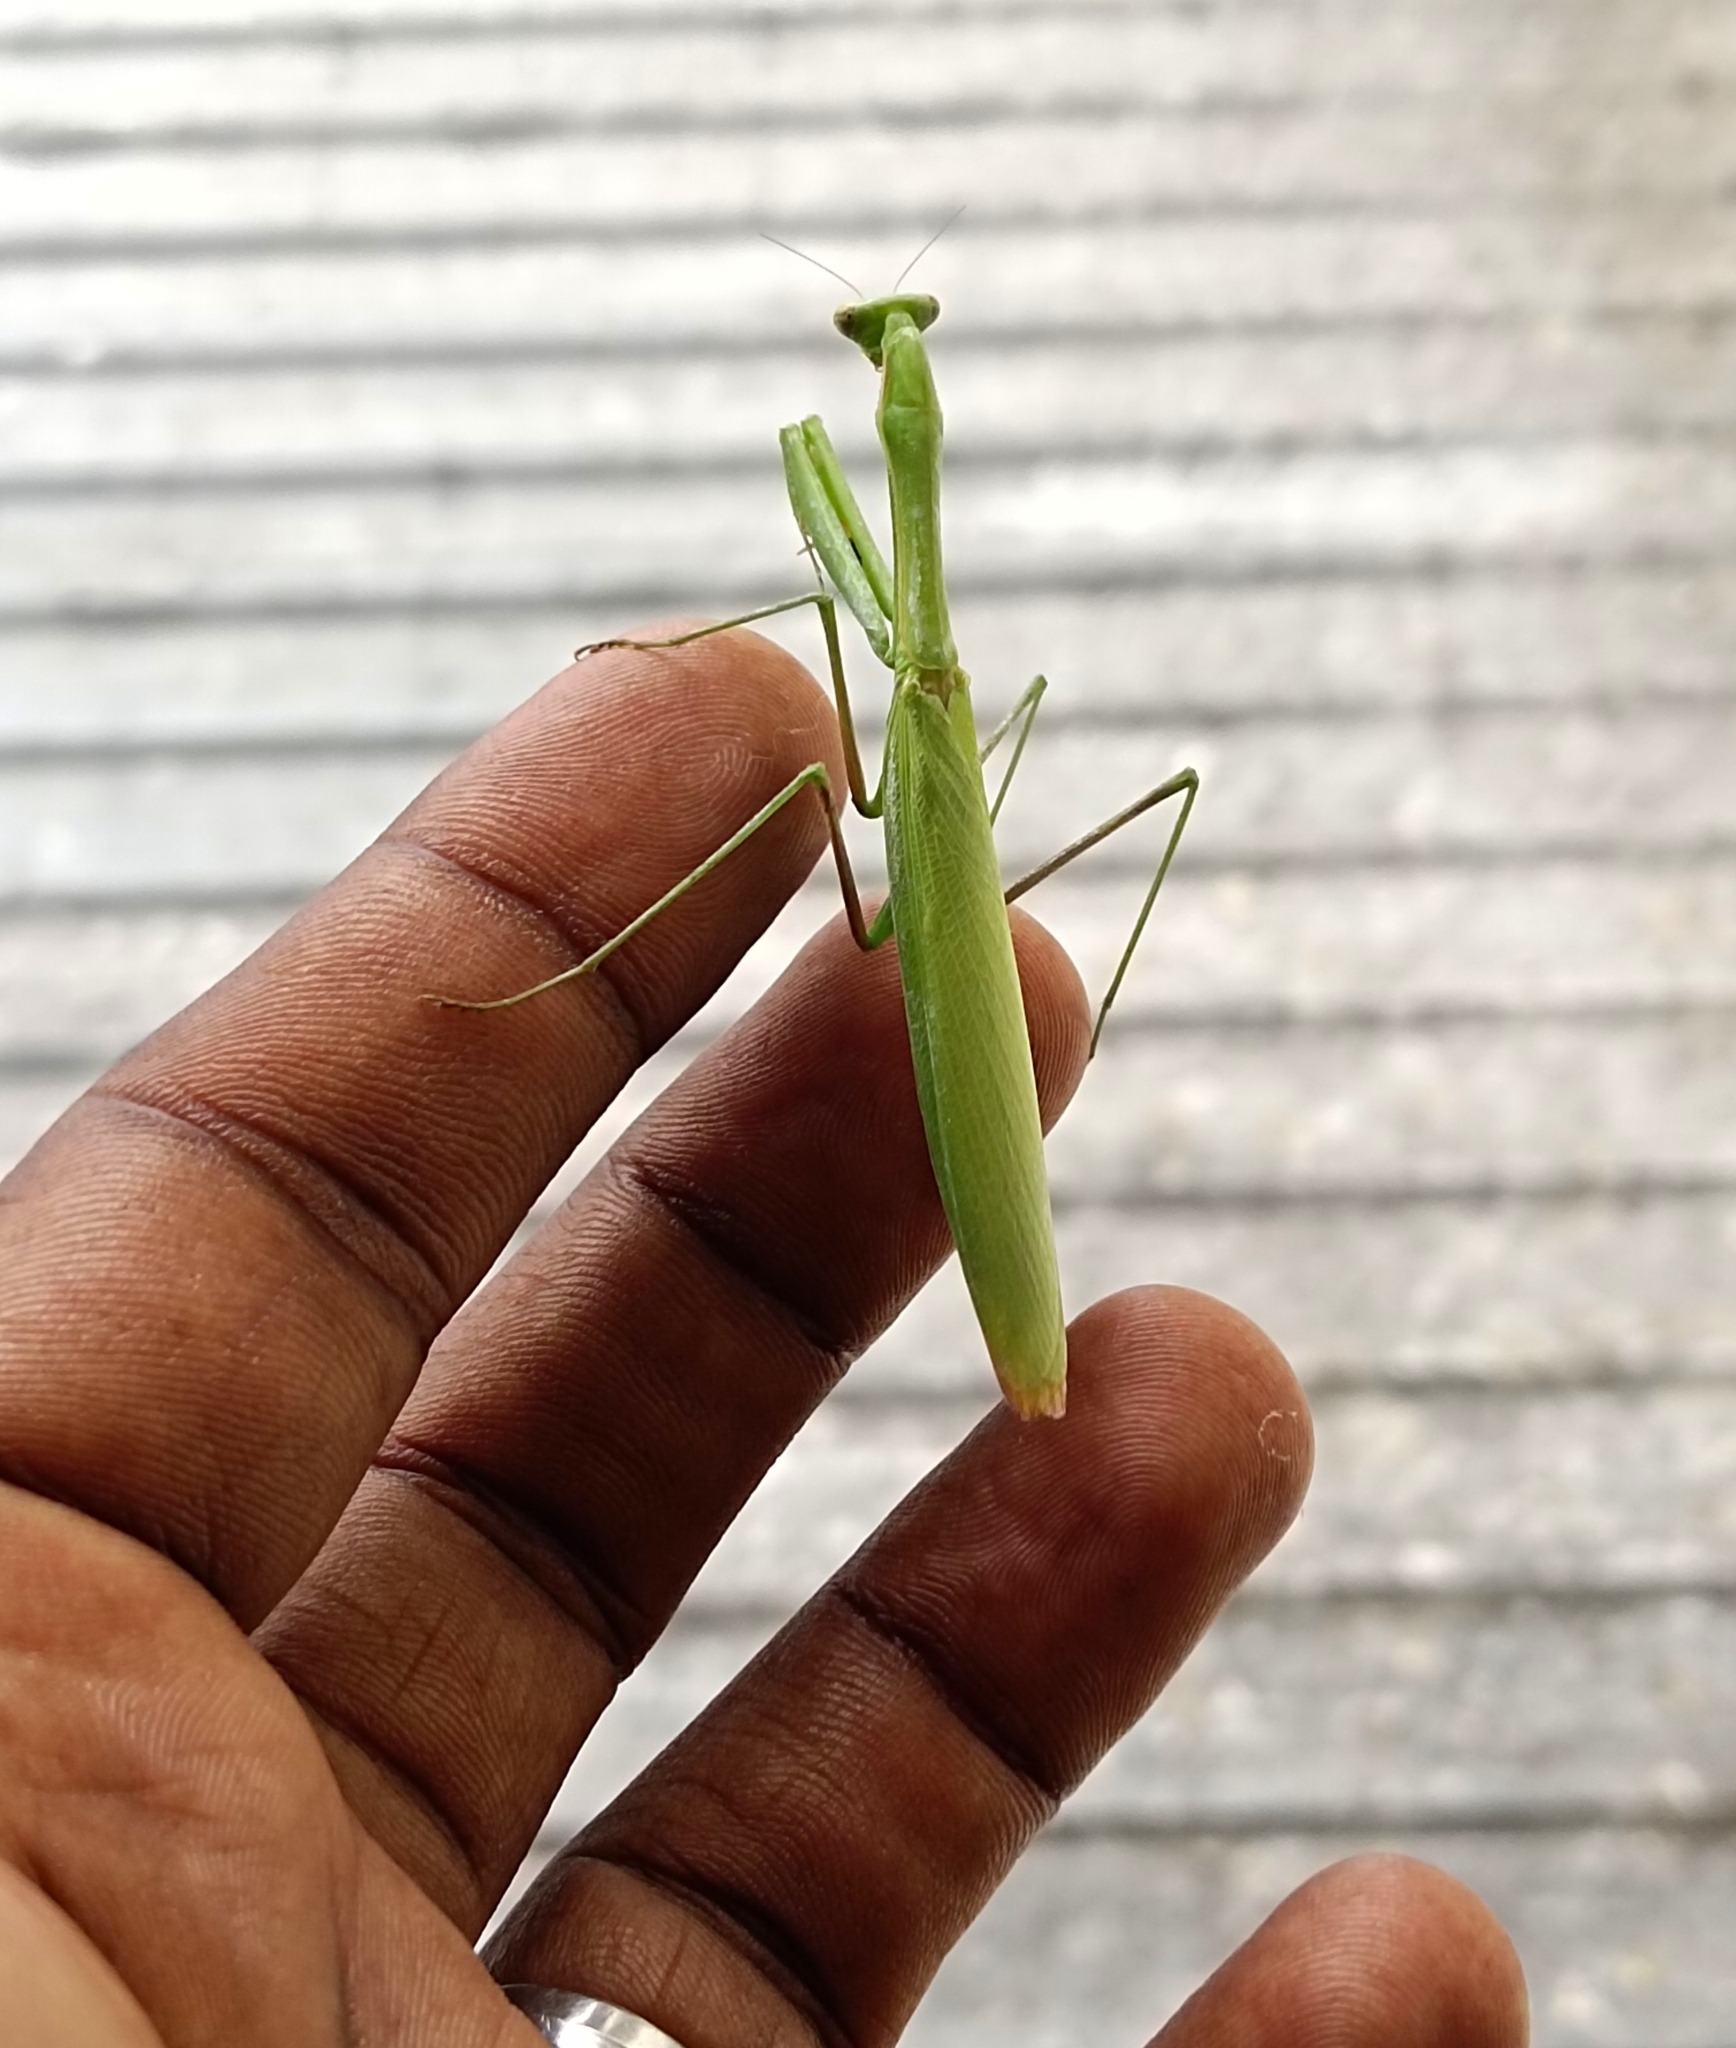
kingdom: Animalia
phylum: Arthropoda
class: Insecta
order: Mantodea
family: Mantidae
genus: Statilia
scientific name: Statilia nobilis
